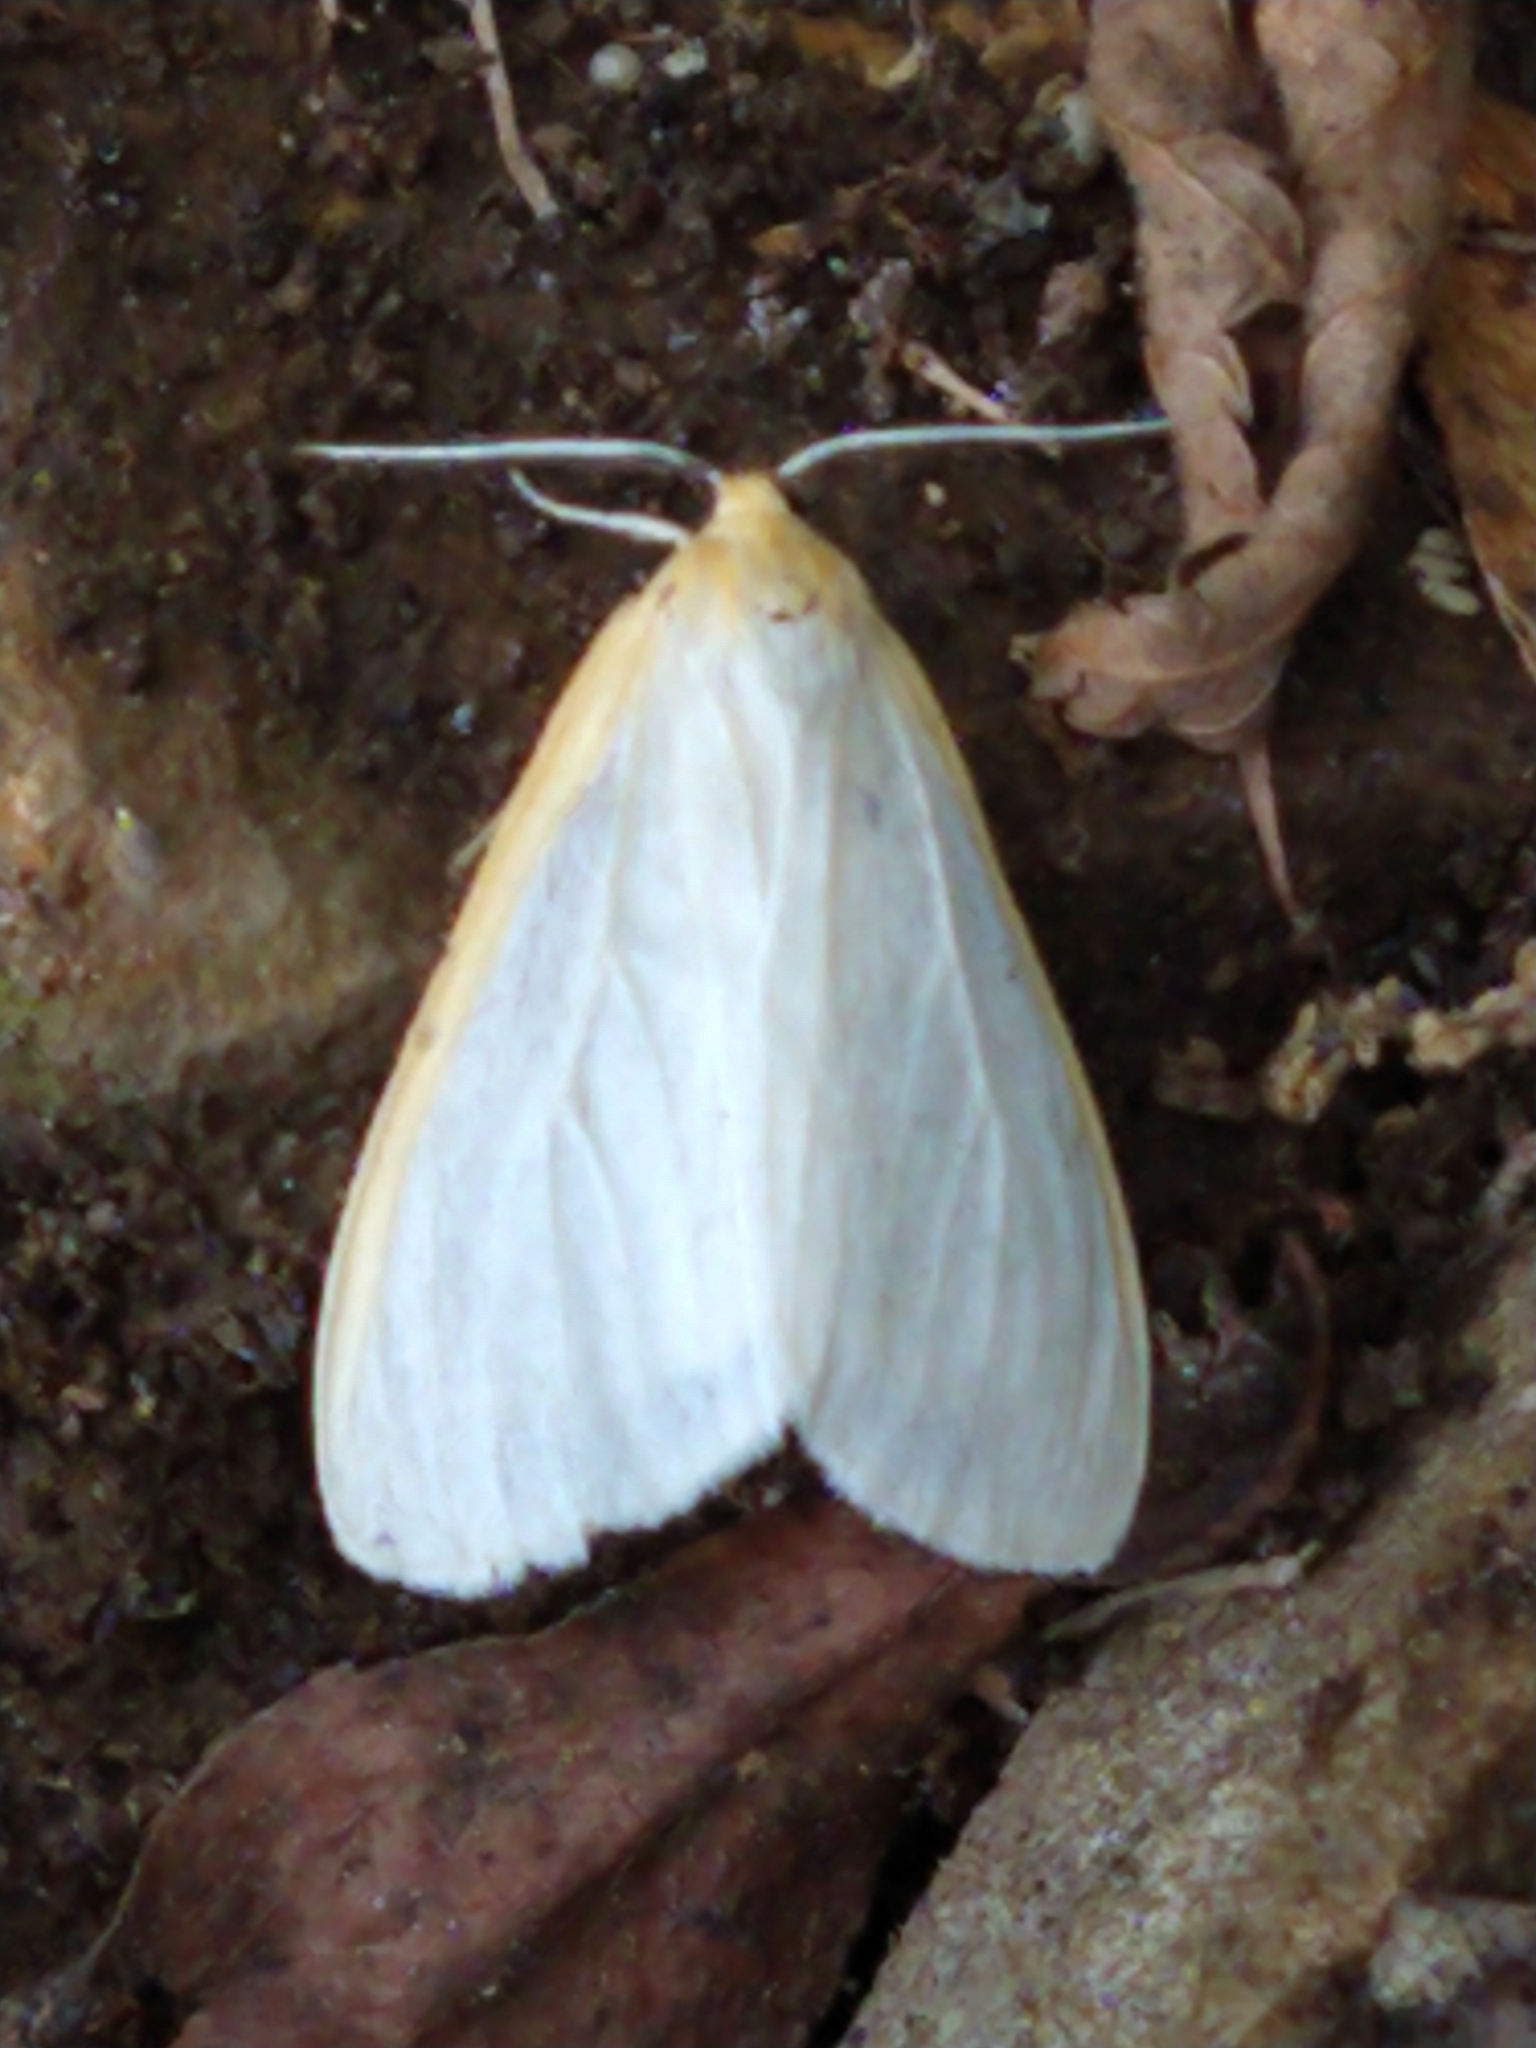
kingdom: Animalia
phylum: Arthropoda
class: Insecta
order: Lepidoptera
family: Erebidae
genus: Cycnia
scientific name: Cycnia tenera
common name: Delicate cycnia moth
